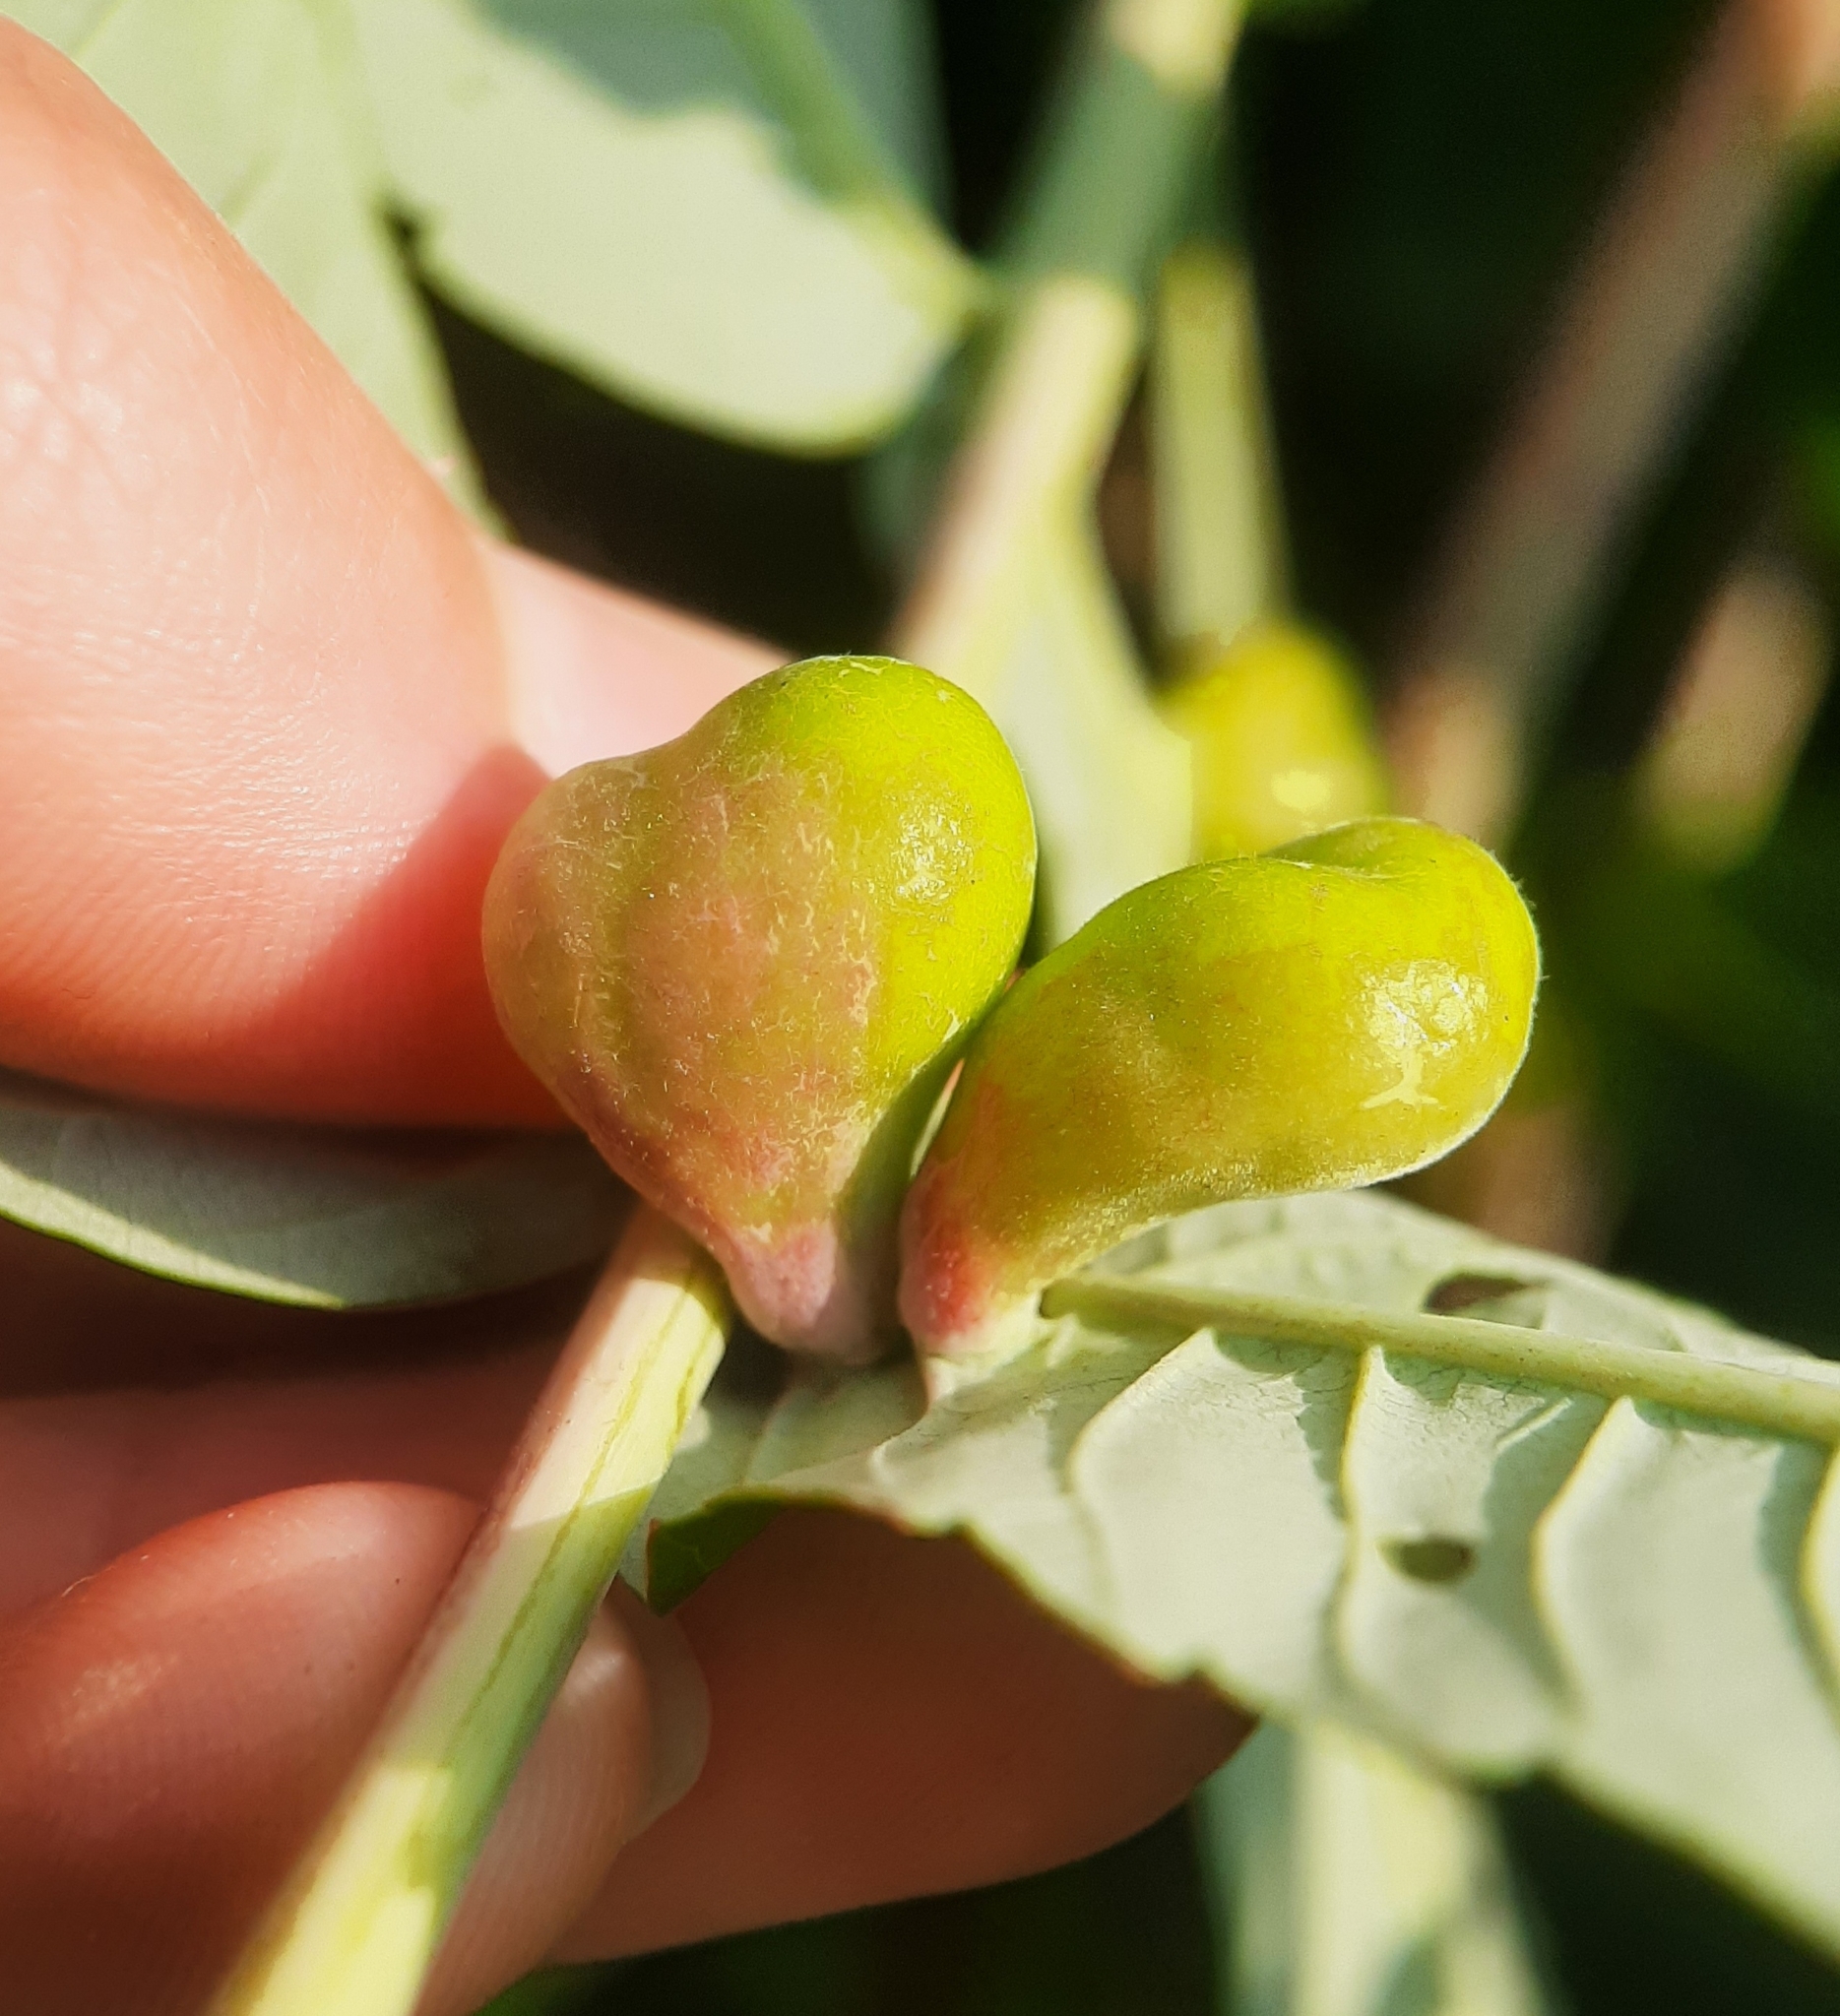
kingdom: Animalia
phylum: Arthropoda
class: Insecta
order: Hemiptera
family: Aphididae
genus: Melaphis
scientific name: Melaphis rhois
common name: Sumac gall aphid
